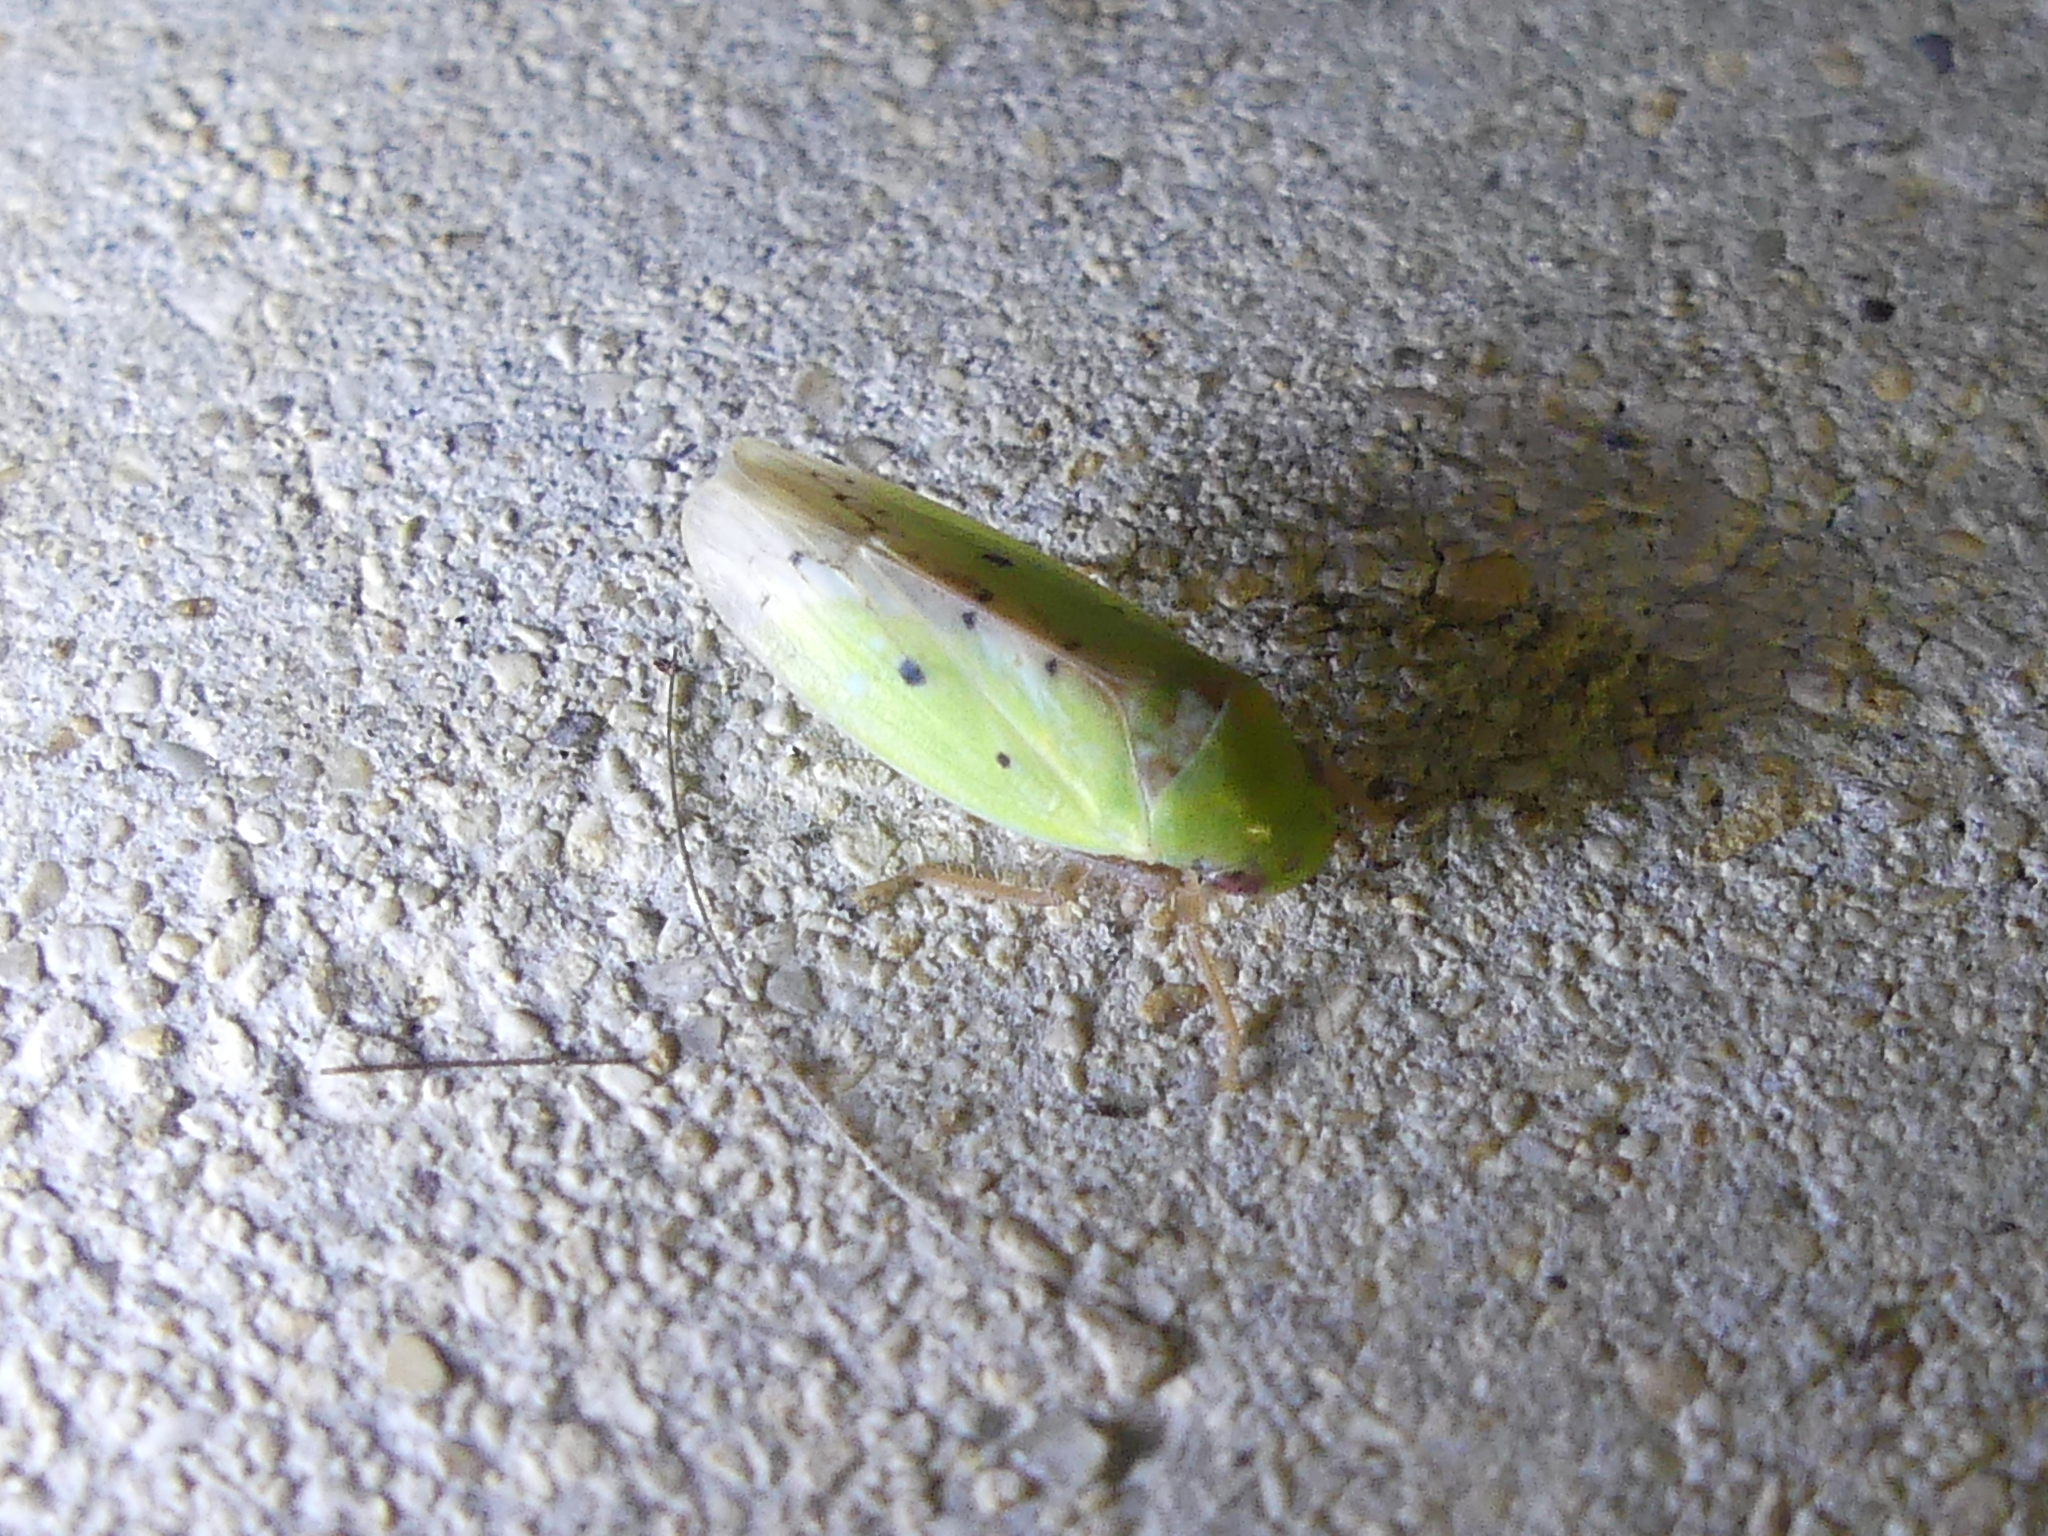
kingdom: Animalia
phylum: Arthropoda
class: Insecta
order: Hemiptera
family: Cicadellidae
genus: Ponana
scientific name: Ponana
